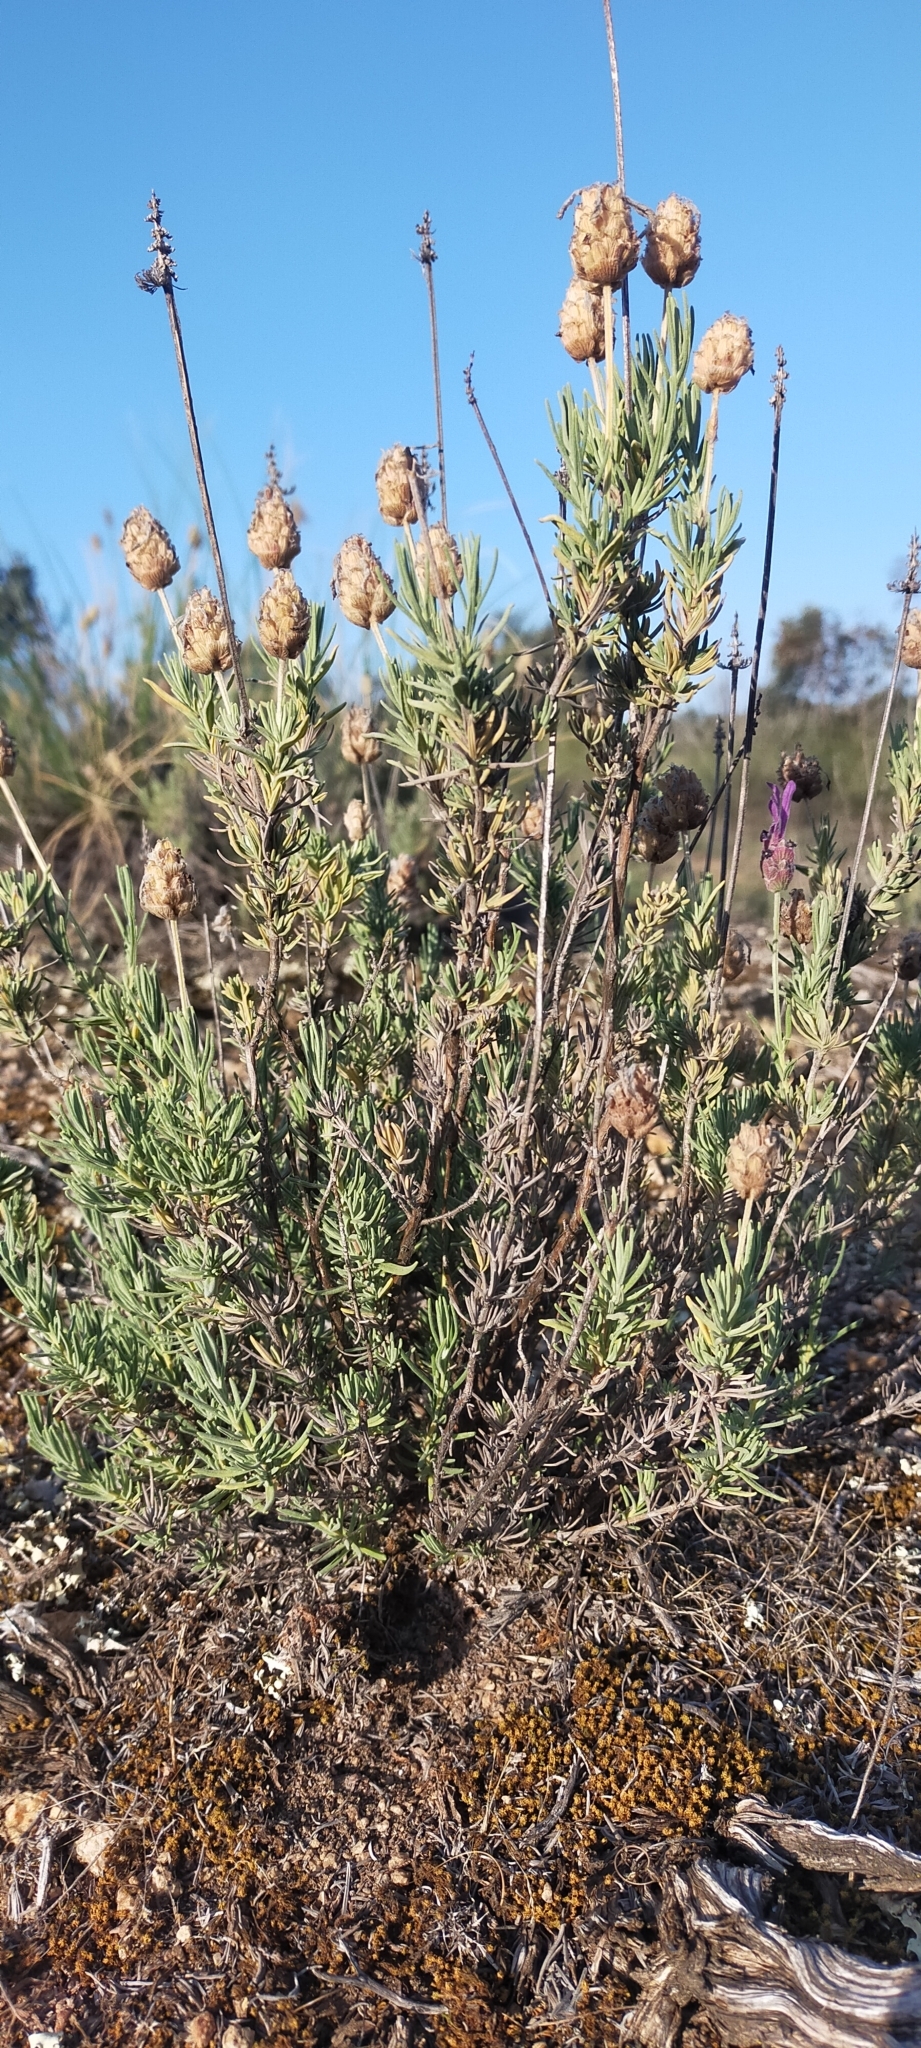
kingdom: Plantae
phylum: Tracheophyta
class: Magnoliopsida
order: Lamiales
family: Lamiaceae
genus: Lavandula
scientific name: Lavandula pedunculata
